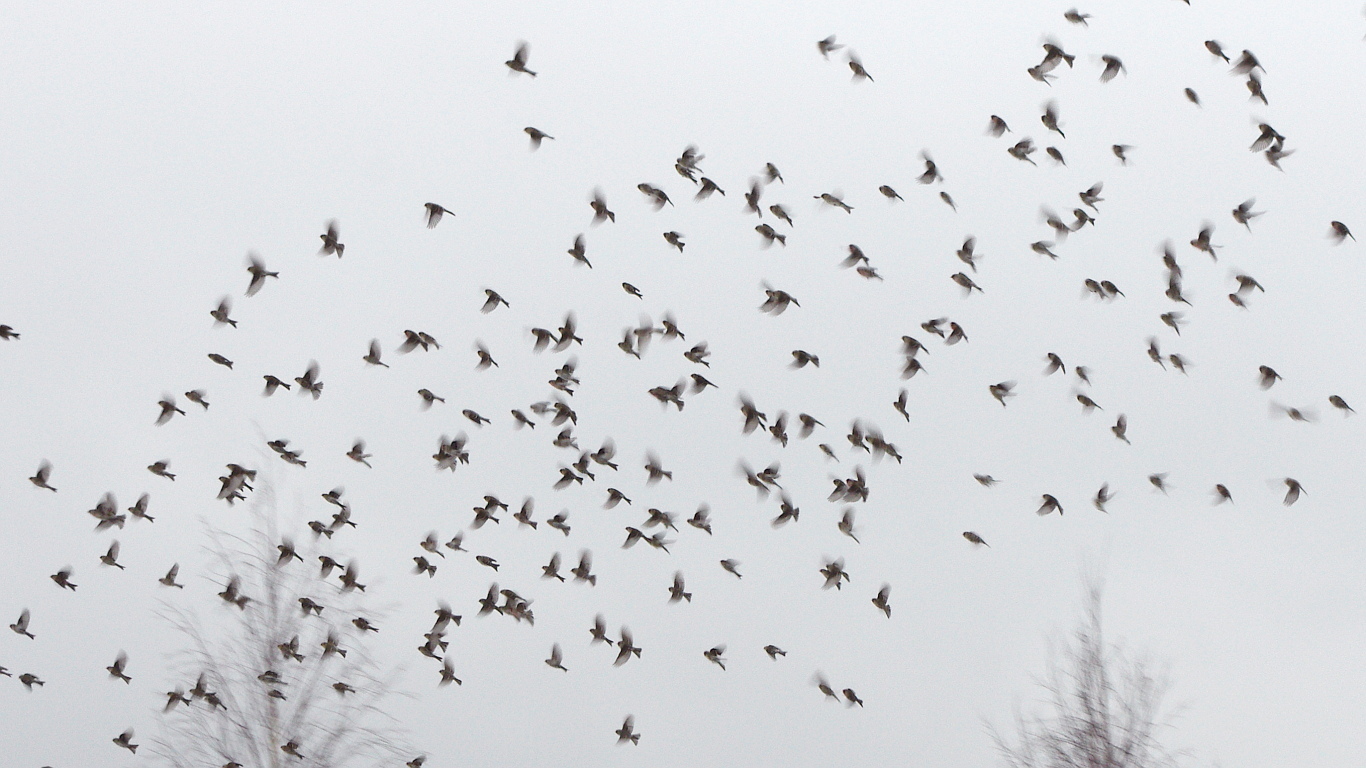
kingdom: Animalia
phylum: Chordata
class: Aves
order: Passeriformes
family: Fringillidae
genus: Acanthis
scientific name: Acanthis flammea
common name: Common redpoll
